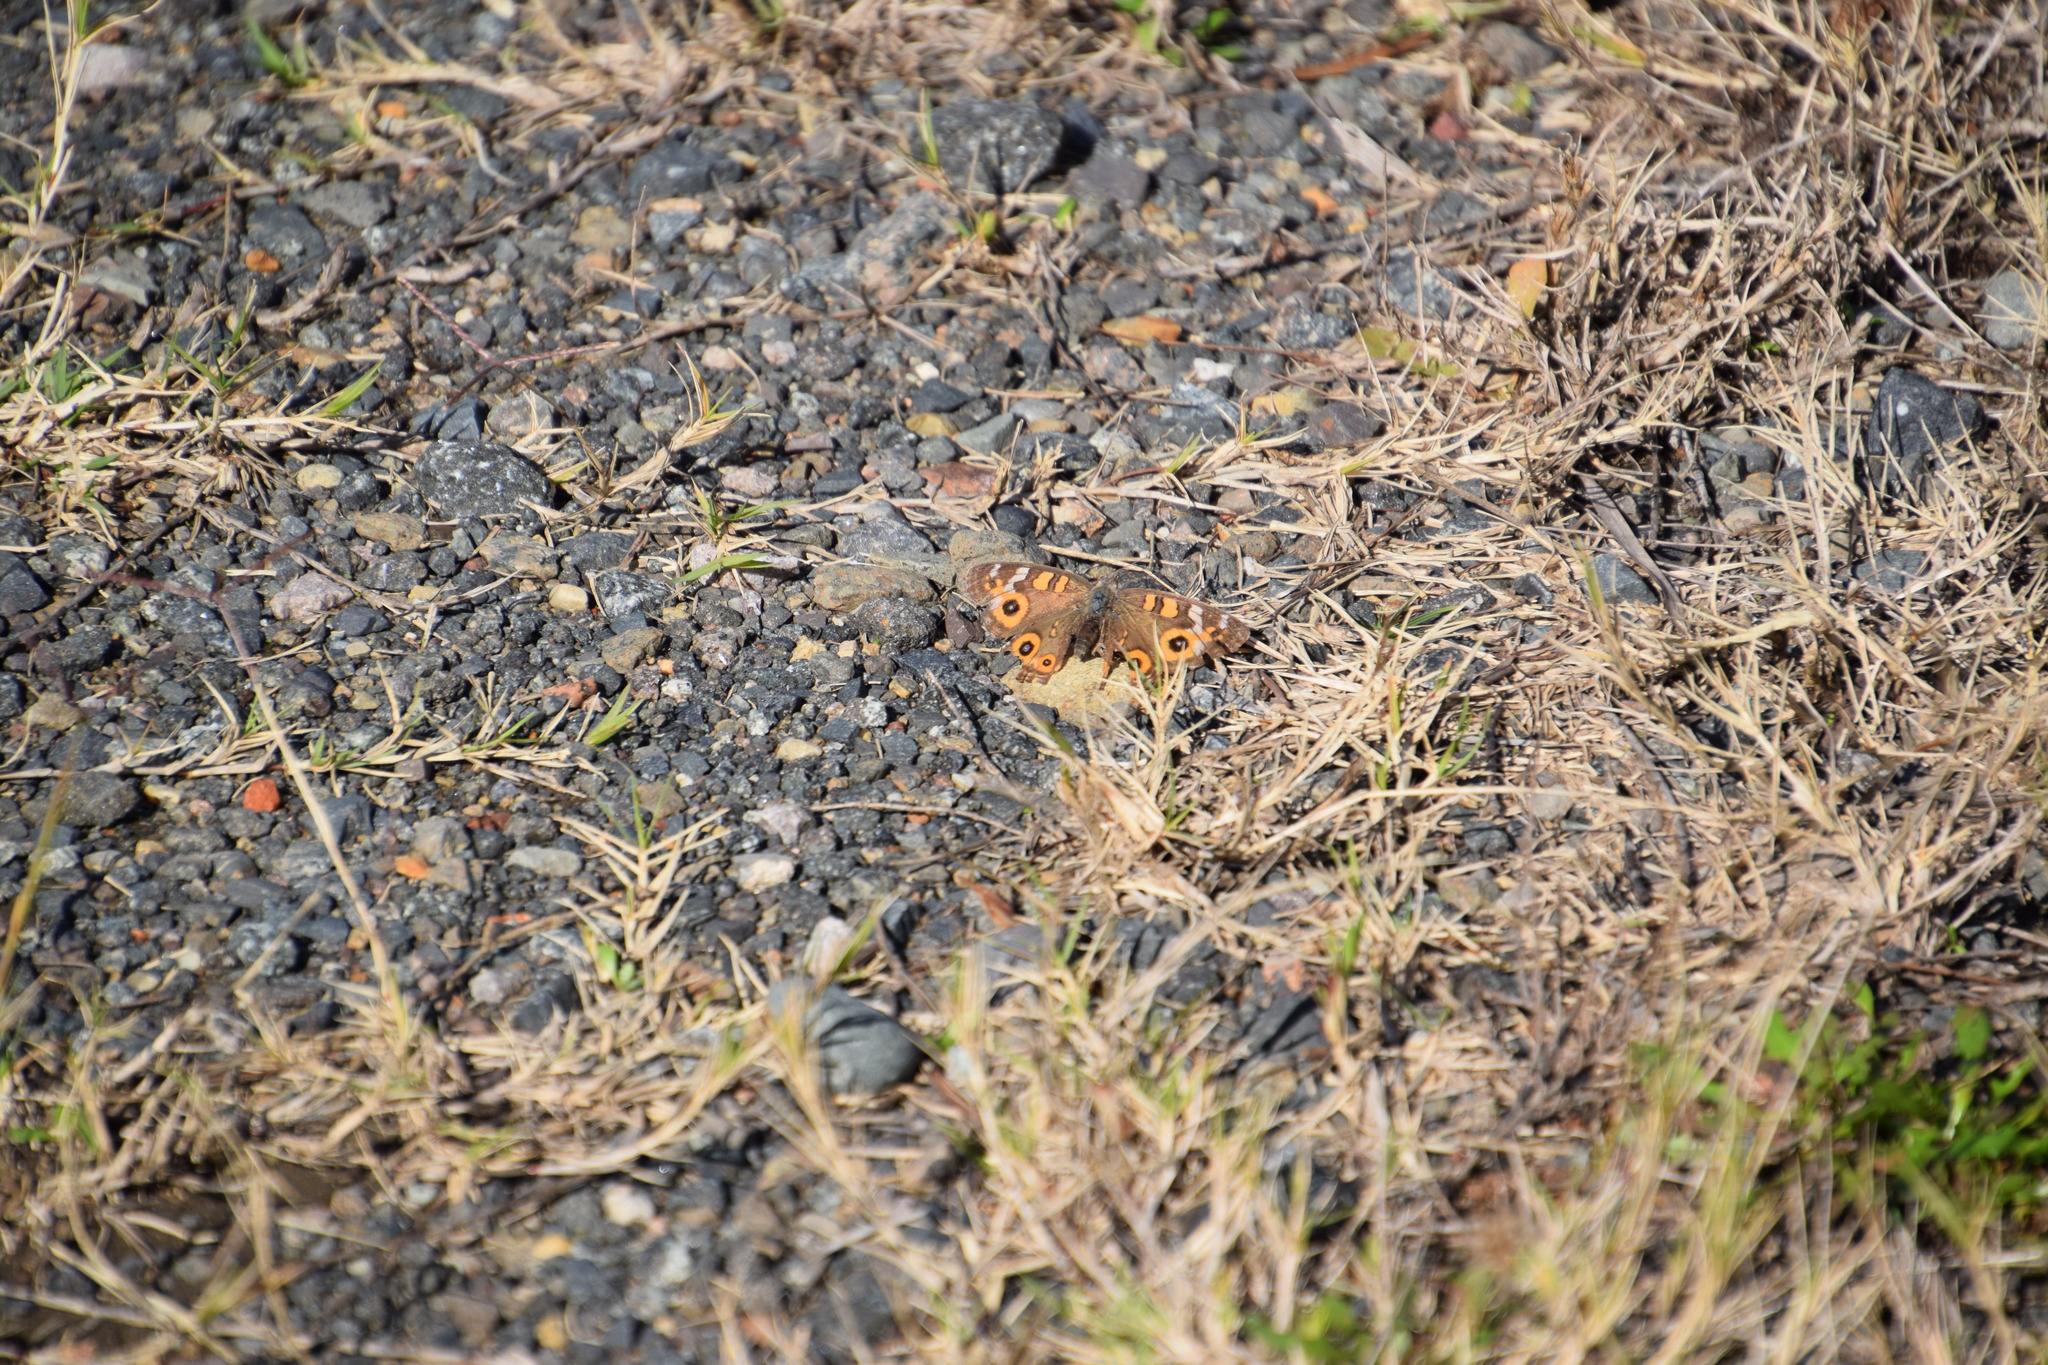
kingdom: Animalia
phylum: Arthropoda
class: Insecta
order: Lepidoptera
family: Nymphalidae
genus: Junonia
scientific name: Junonia villida
